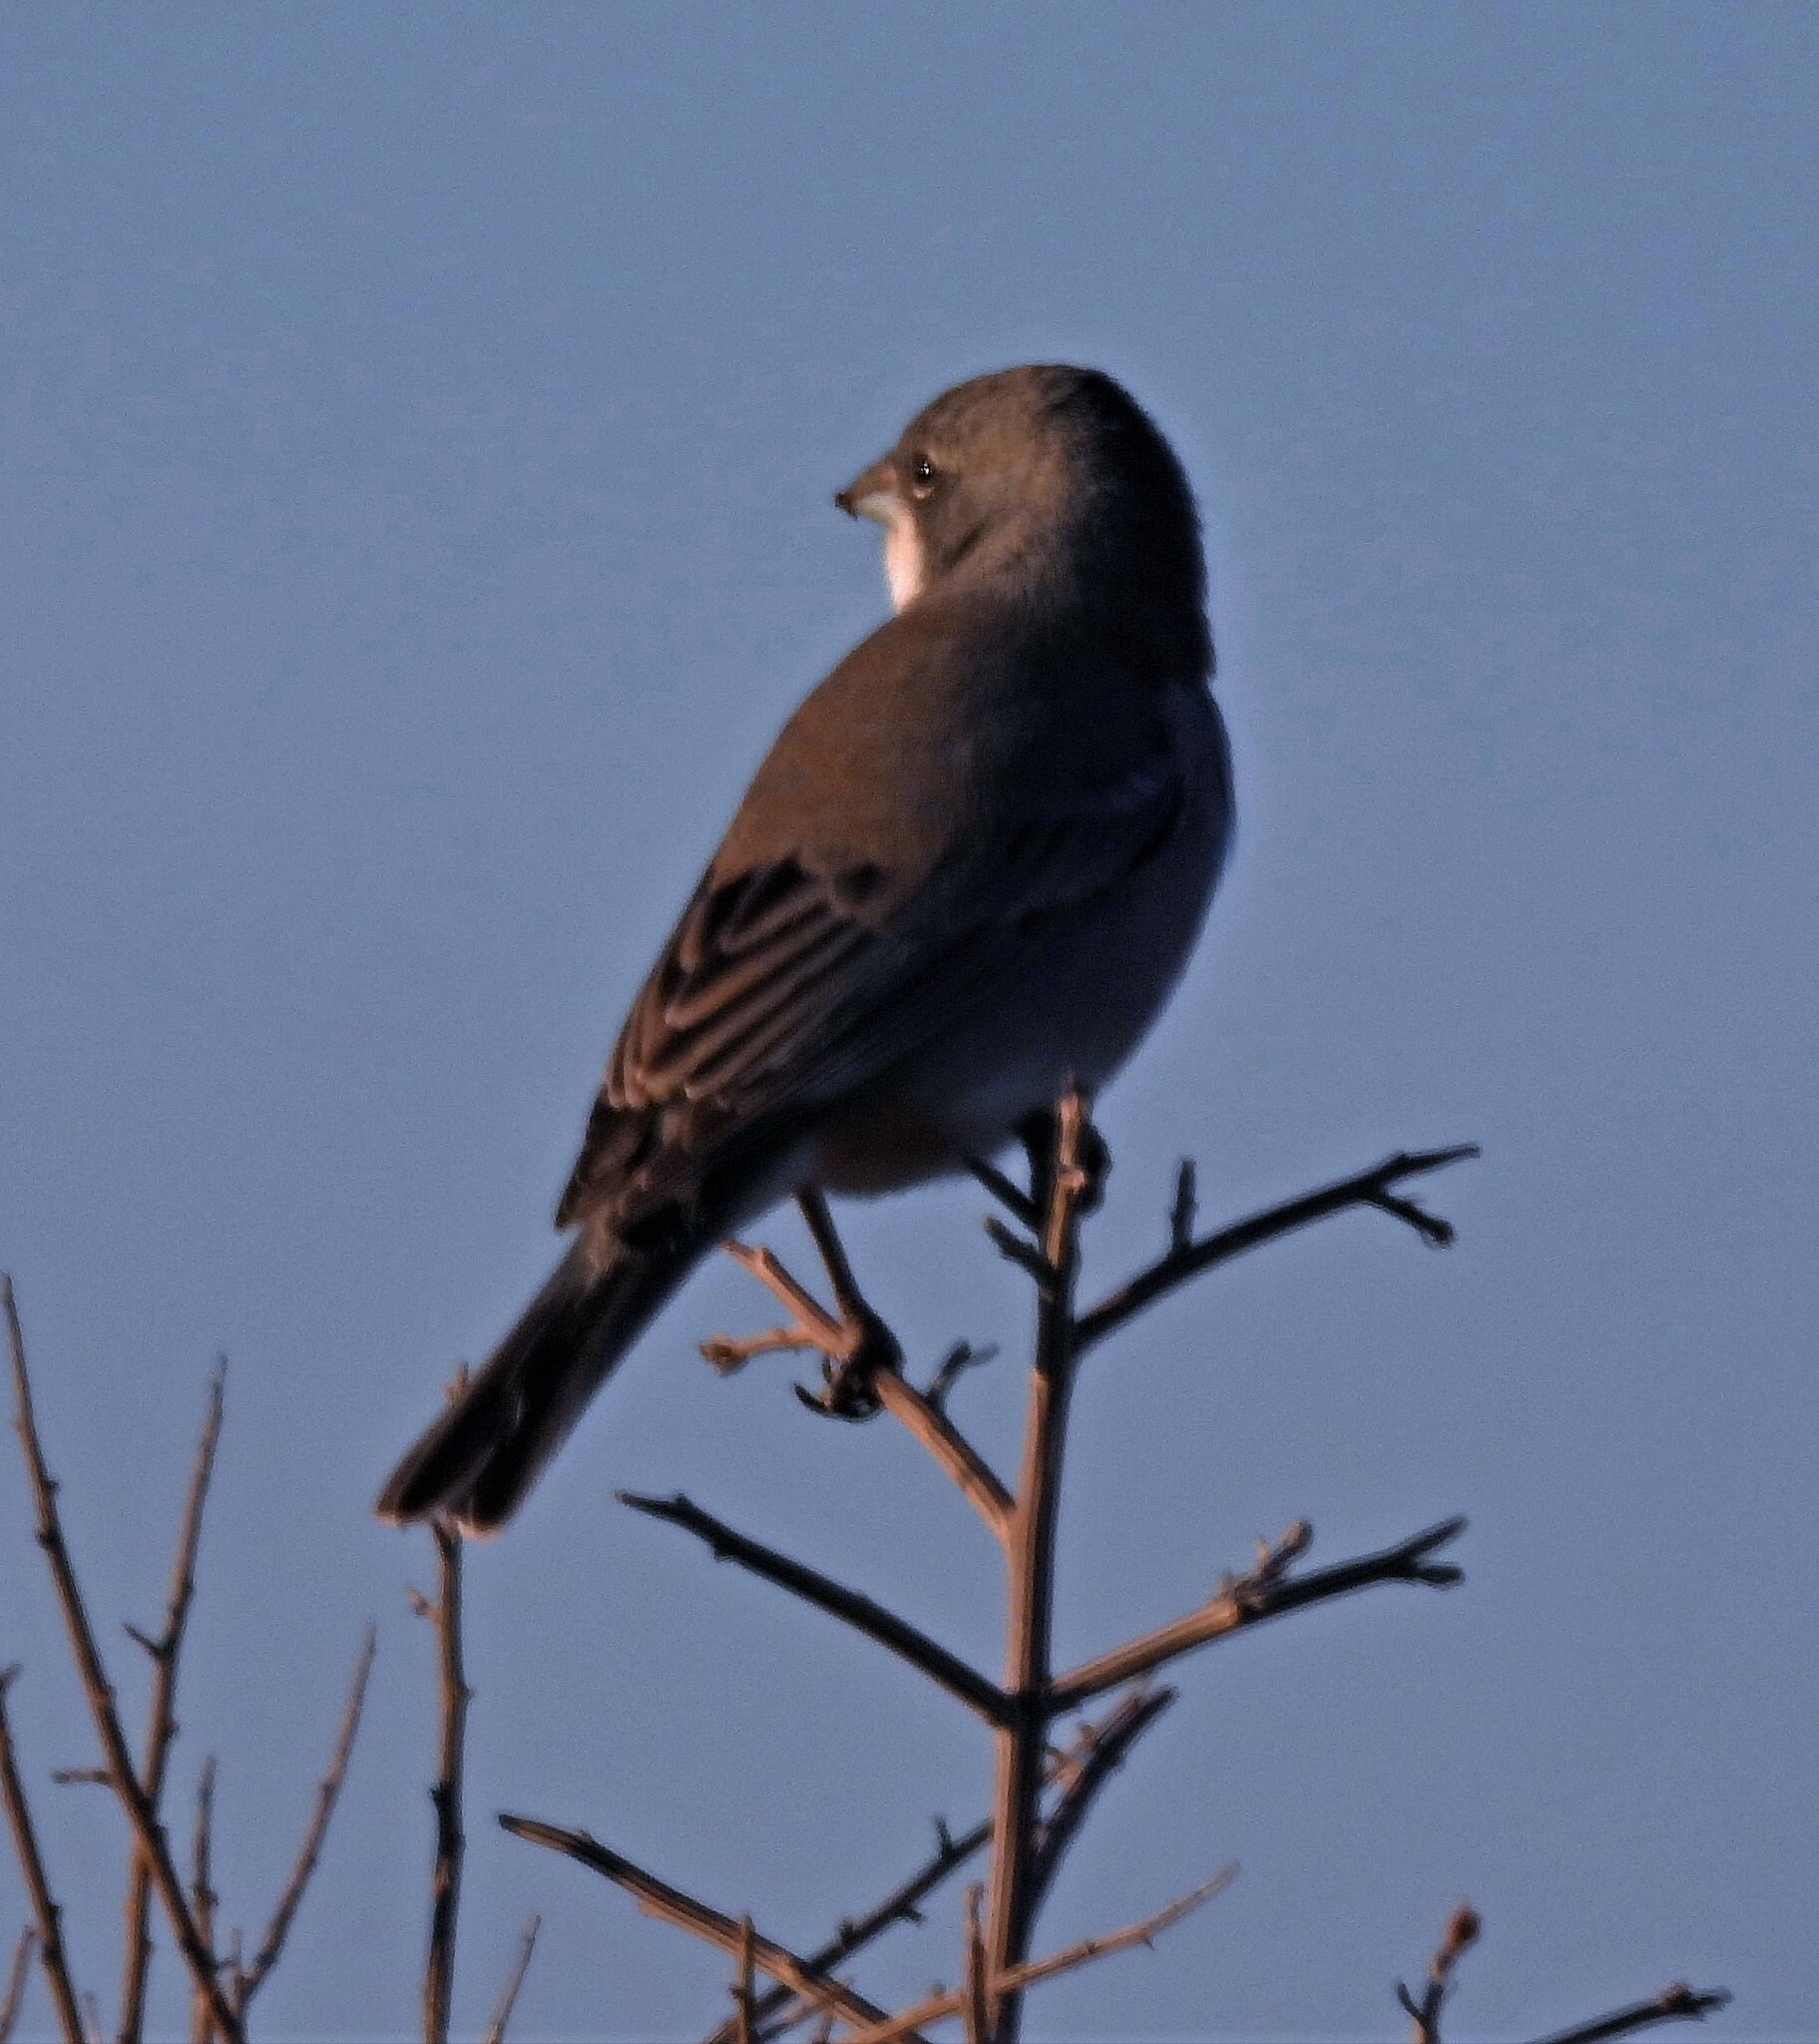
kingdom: Animalia
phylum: Chordata
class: Aves
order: Passeriformes
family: Thraupidae
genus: Diuca
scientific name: Diuca diuca
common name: Common diuca finch
